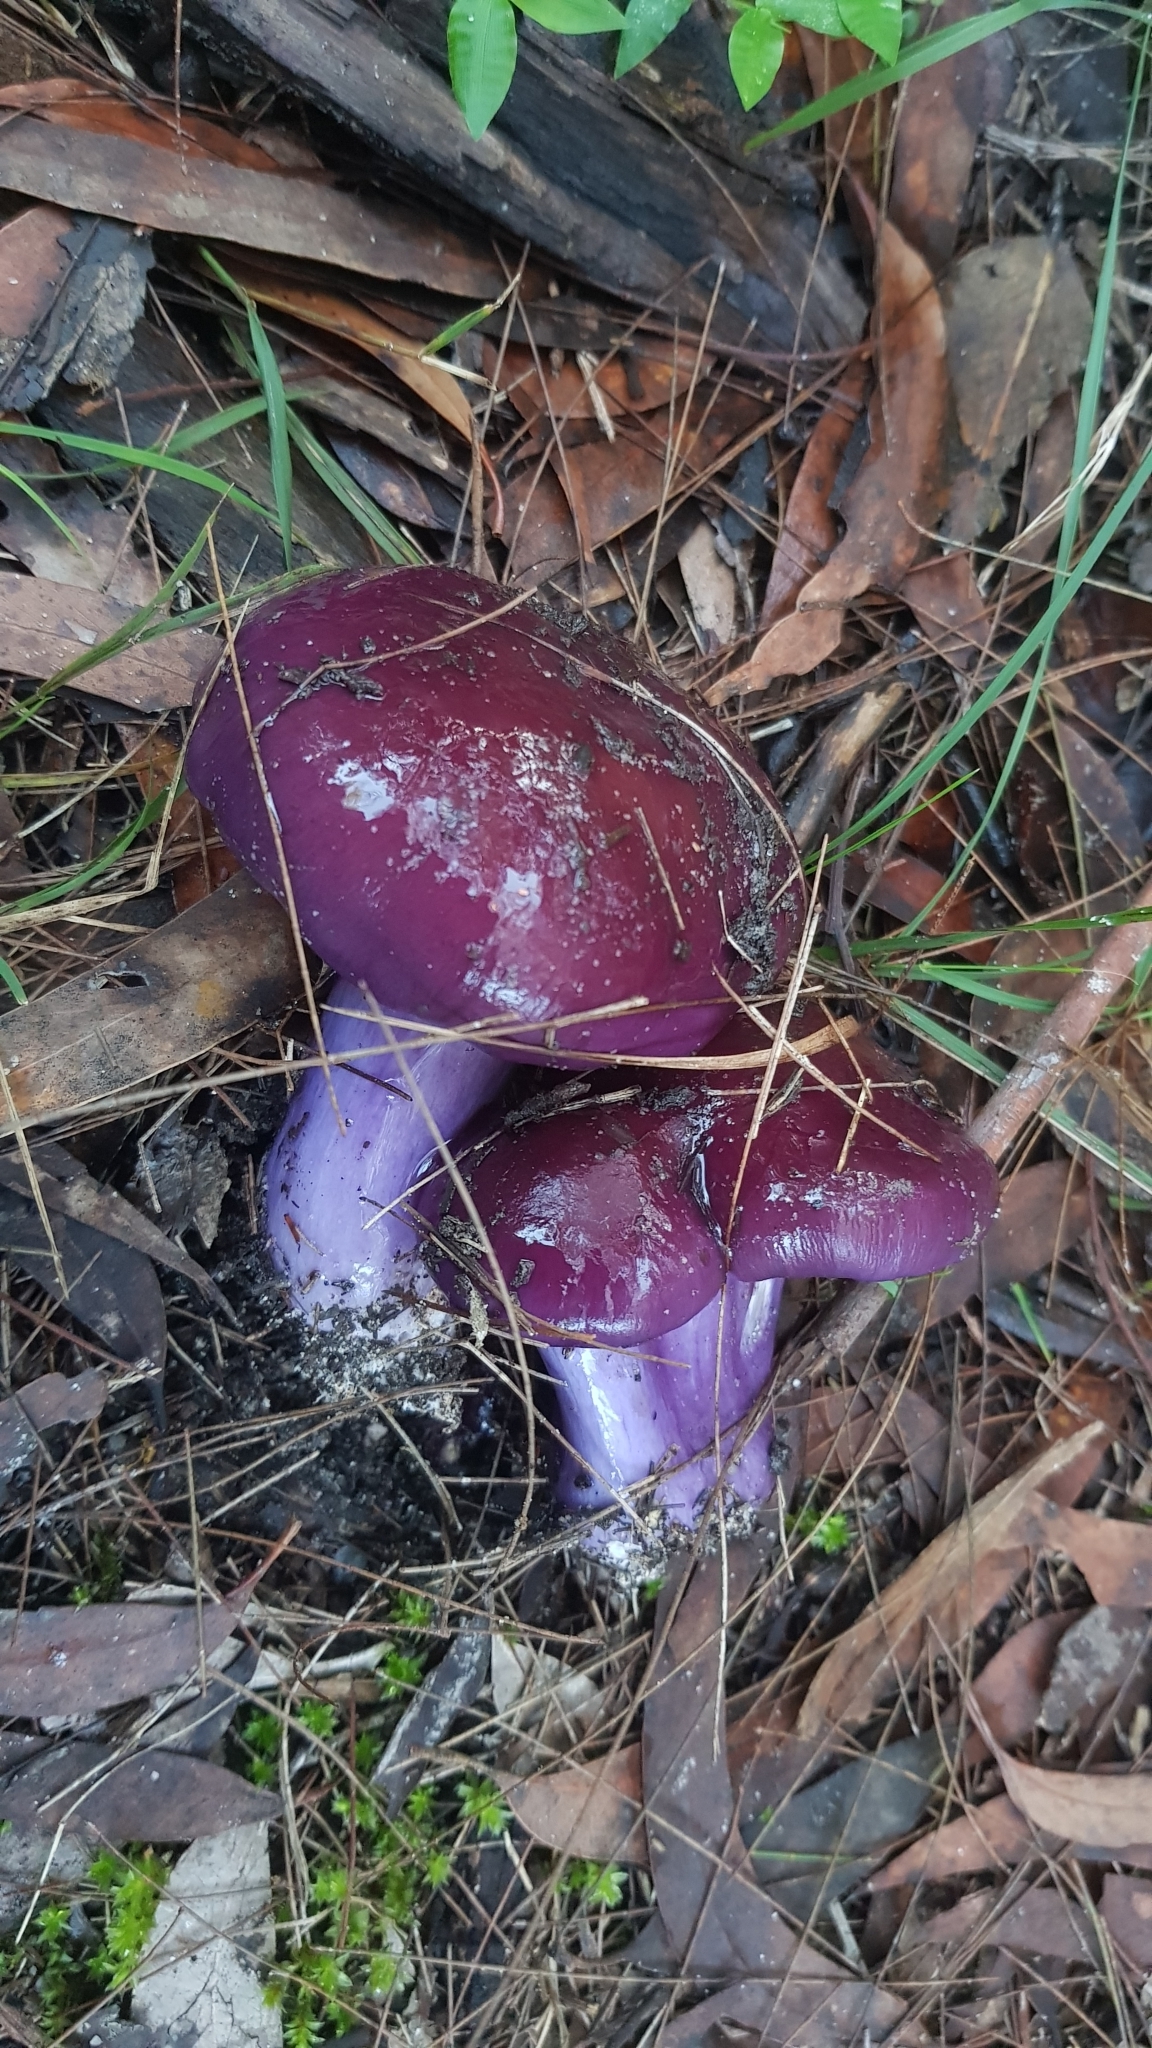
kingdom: Fungi
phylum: Basidiomycota
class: Agaricomycetes
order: Agaricales
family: Cortinariaceae
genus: Cortinarius
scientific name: Cortinarius archeri
